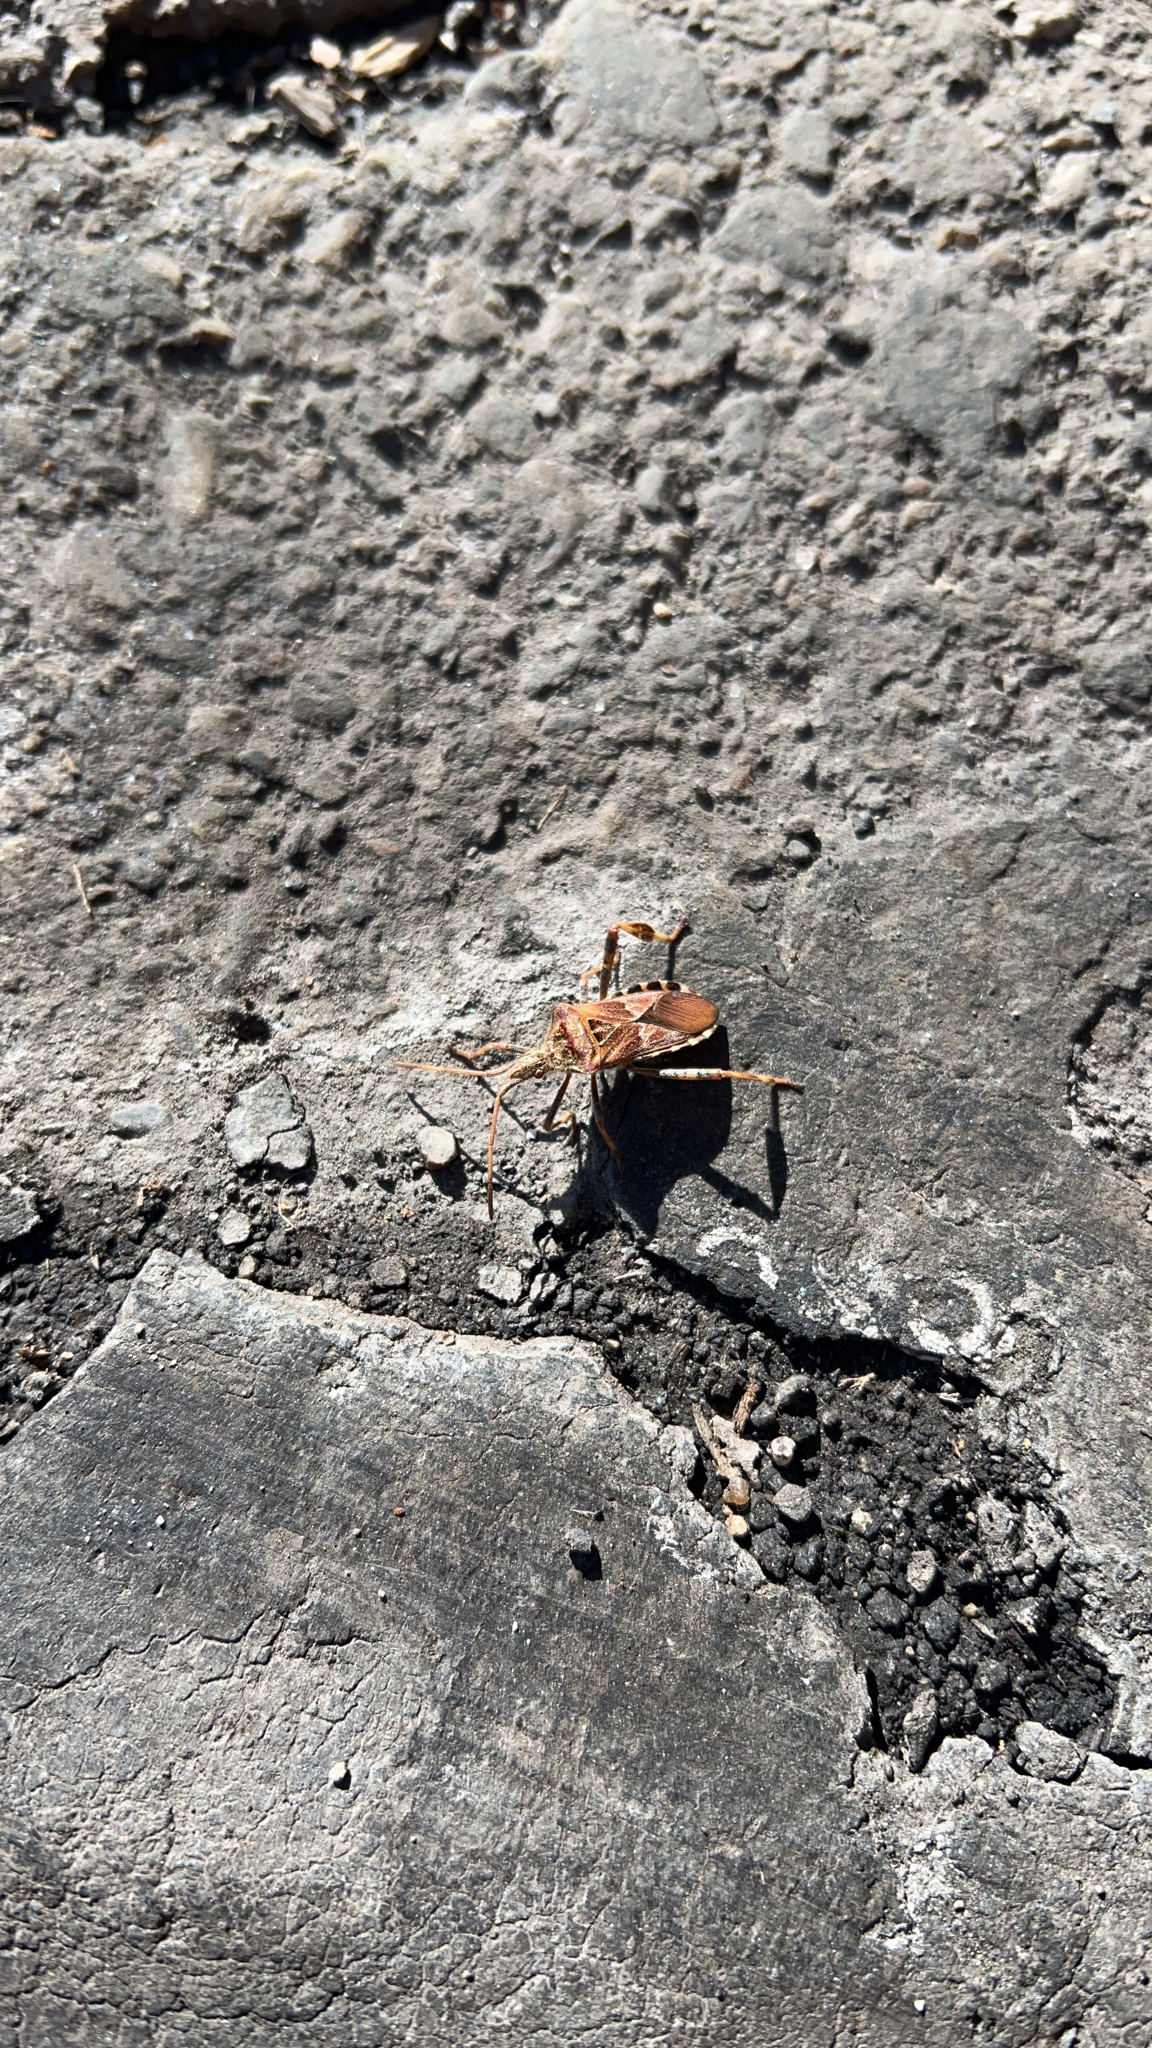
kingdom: Animalia
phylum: Arthropoda
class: Insecta
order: Hemiptera
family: Coreidae
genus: Leptoglossus
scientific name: Leptoglossus occidentalis
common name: Western conifer-seed bug
